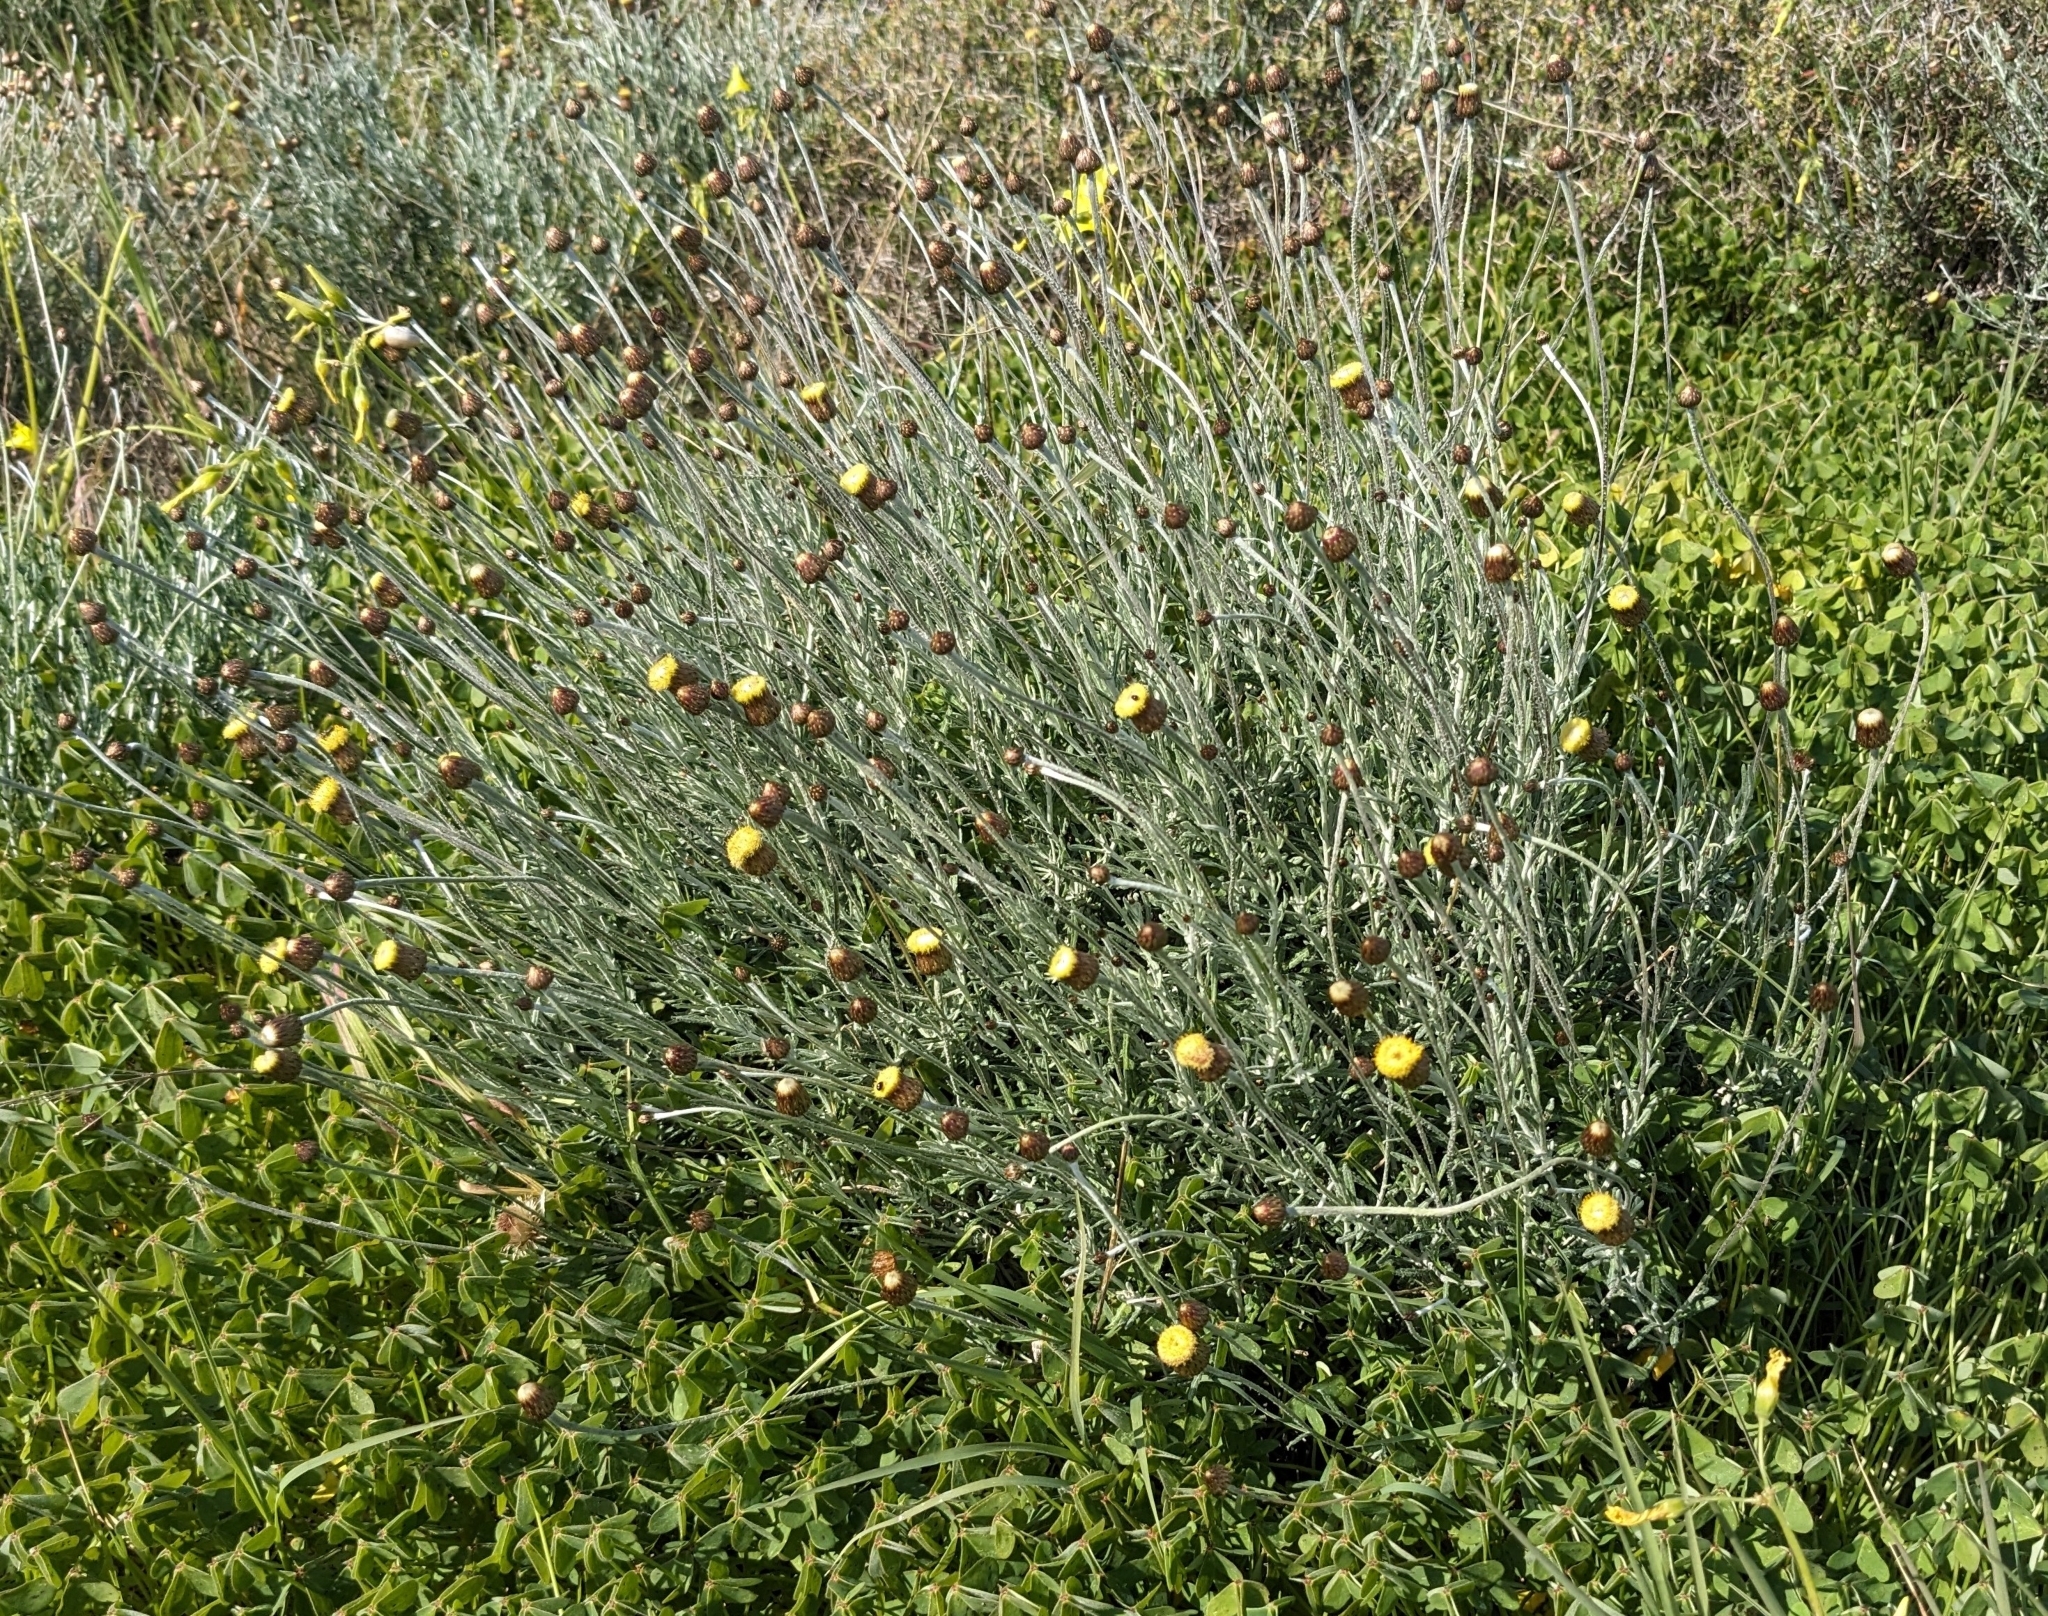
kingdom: Plantae
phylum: Tracheophyta
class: Magnoliopsida
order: Asterales
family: Asteraceae
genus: Phagnalon
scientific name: Phagnalon graecum
